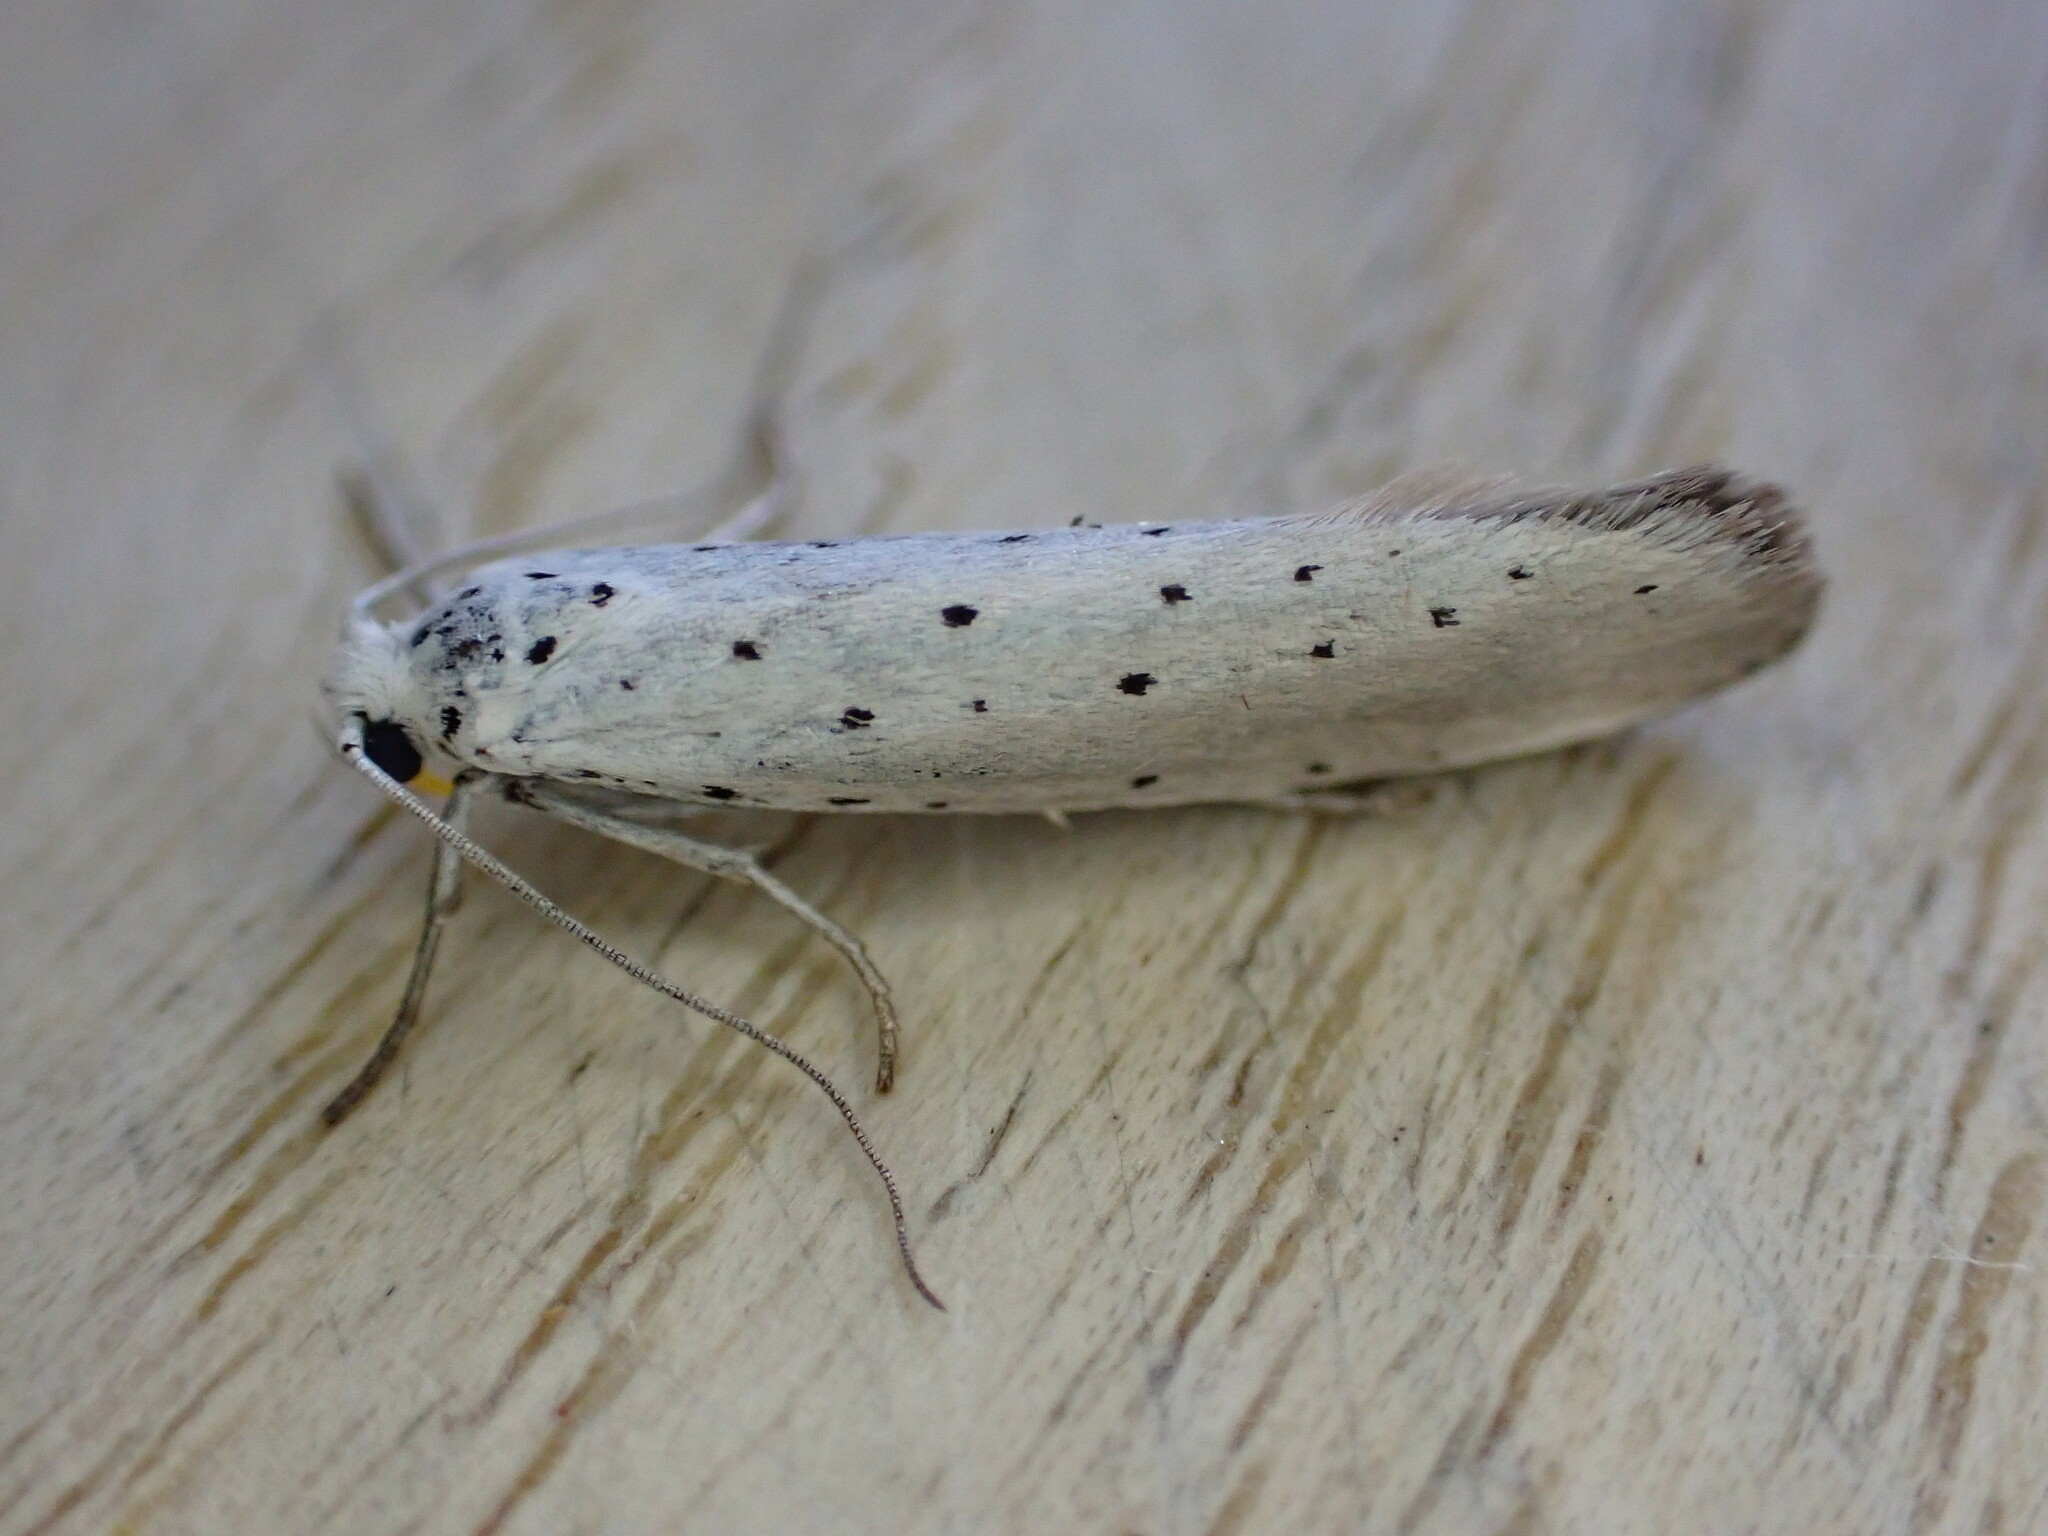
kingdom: Animalia
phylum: Arthropoda
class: Insecta
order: Lepidoptera
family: Yponomeutidae
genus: Yponomeuta
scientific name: Yponomeuta
